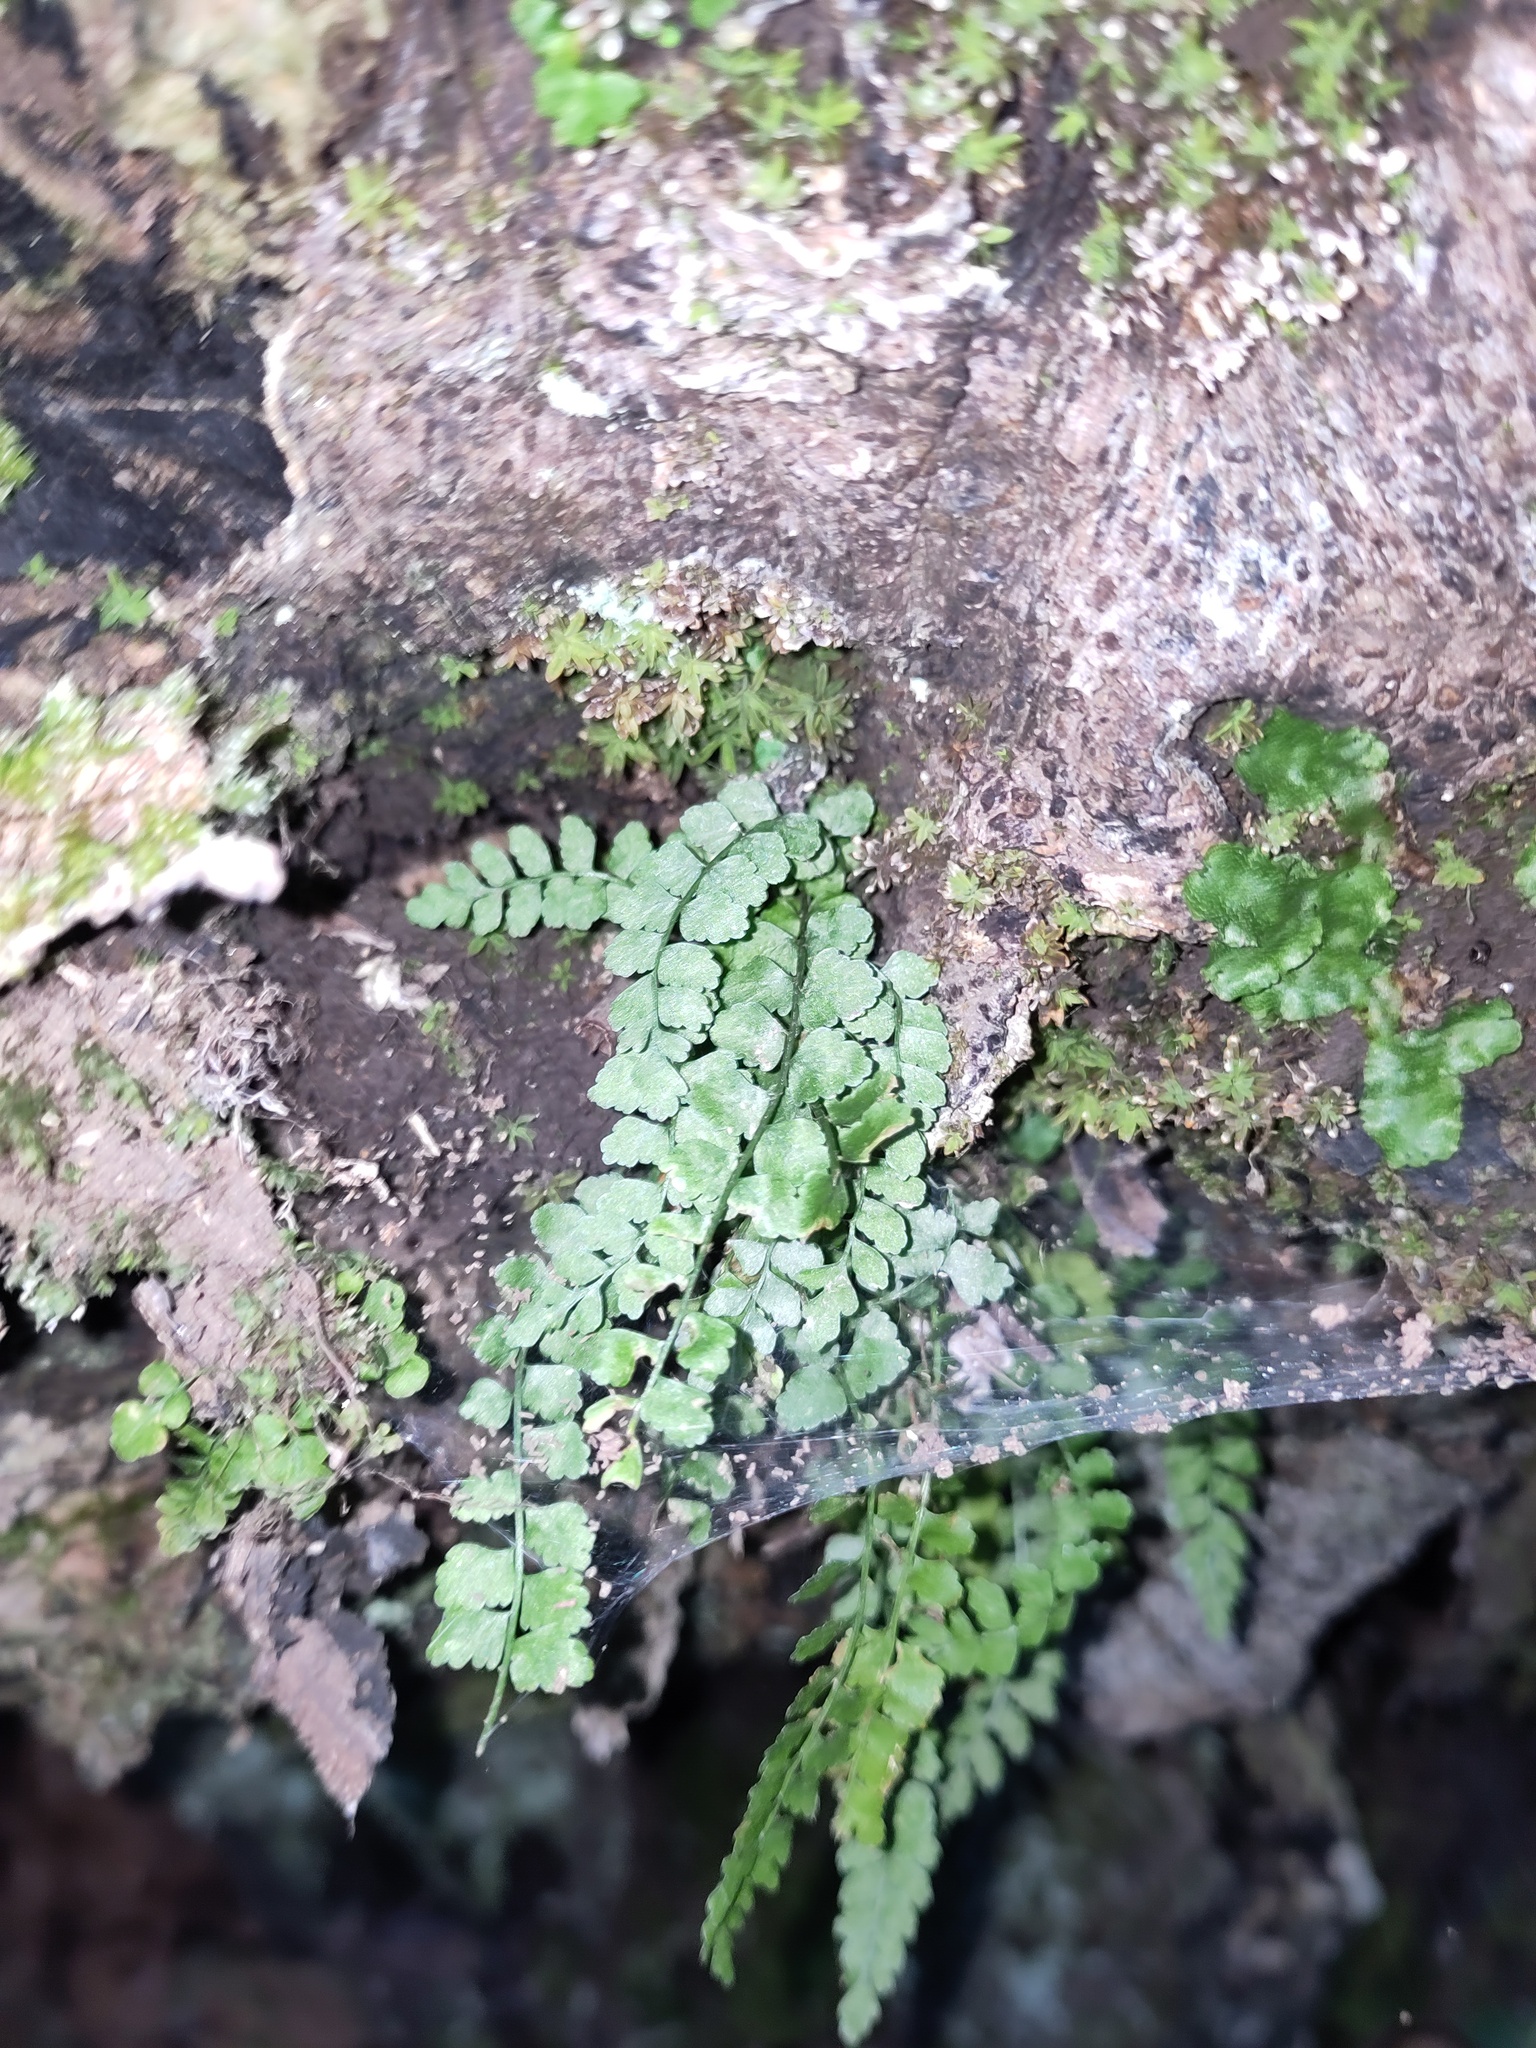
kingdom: Plantae
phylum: Tracheophyta
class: Polypodiopsida
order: Polypodiales
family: Aspleniaceae
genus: Asplenium
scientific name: Asplenium viride
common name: Green spleenwort
